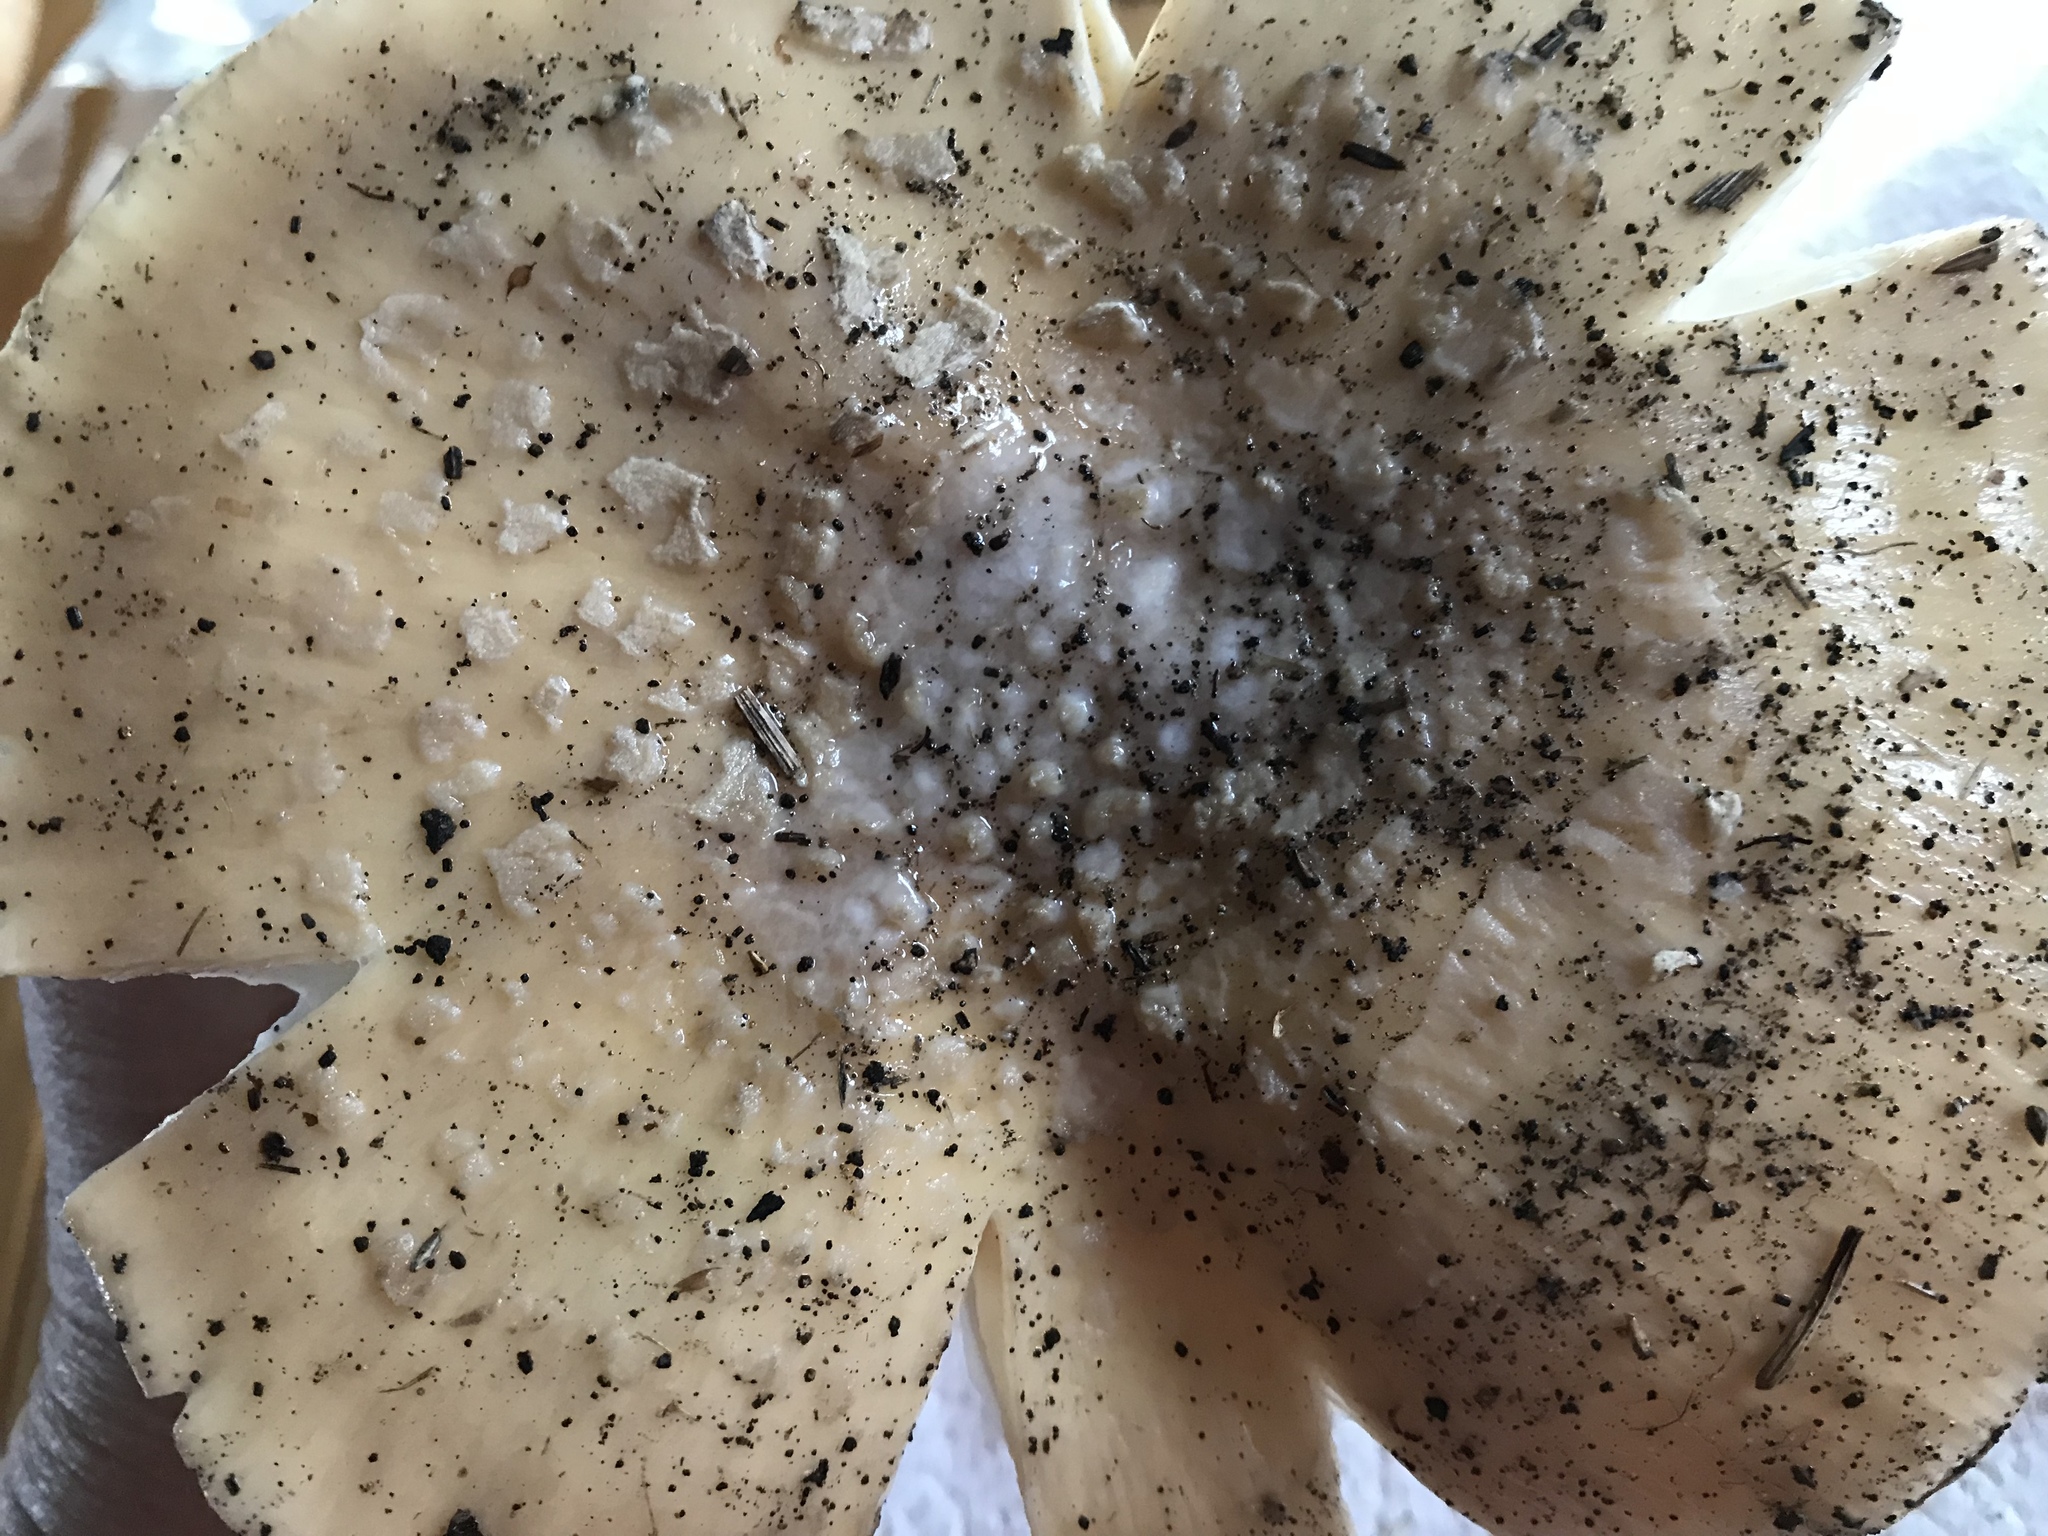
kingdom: Fungi
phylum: Basidiomycota
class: Agaricomycetes
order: Agaricales
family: Amanitaceae
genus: Amanita
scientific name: Amanita pantherina
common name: Panthercap
